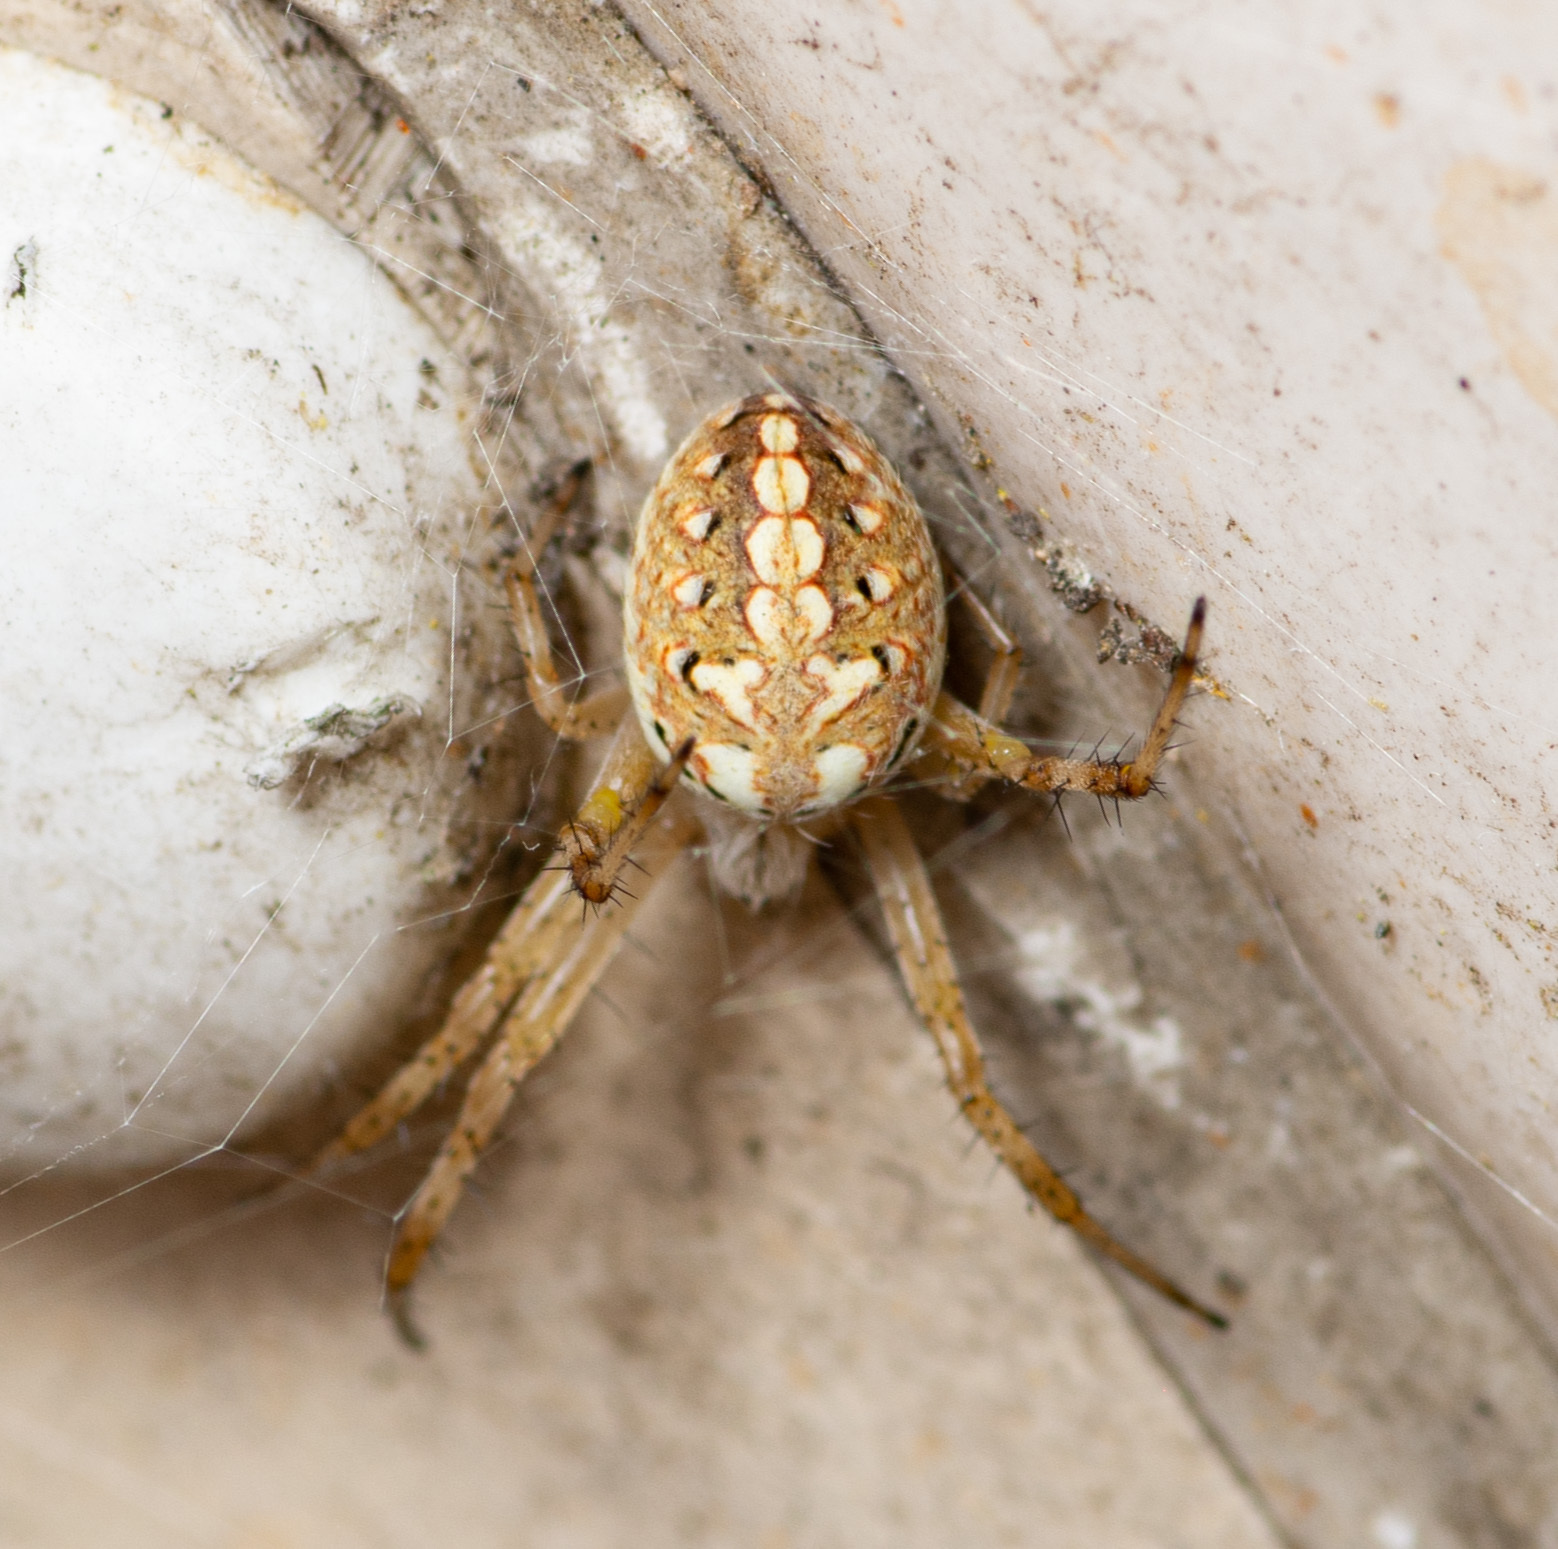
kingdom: Animalia
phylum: Arthropoda
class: Arachnida
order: Araneae
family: Araneidae
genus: Neoscona
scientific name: Neoscona oaxacensis
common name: Orb weavers
